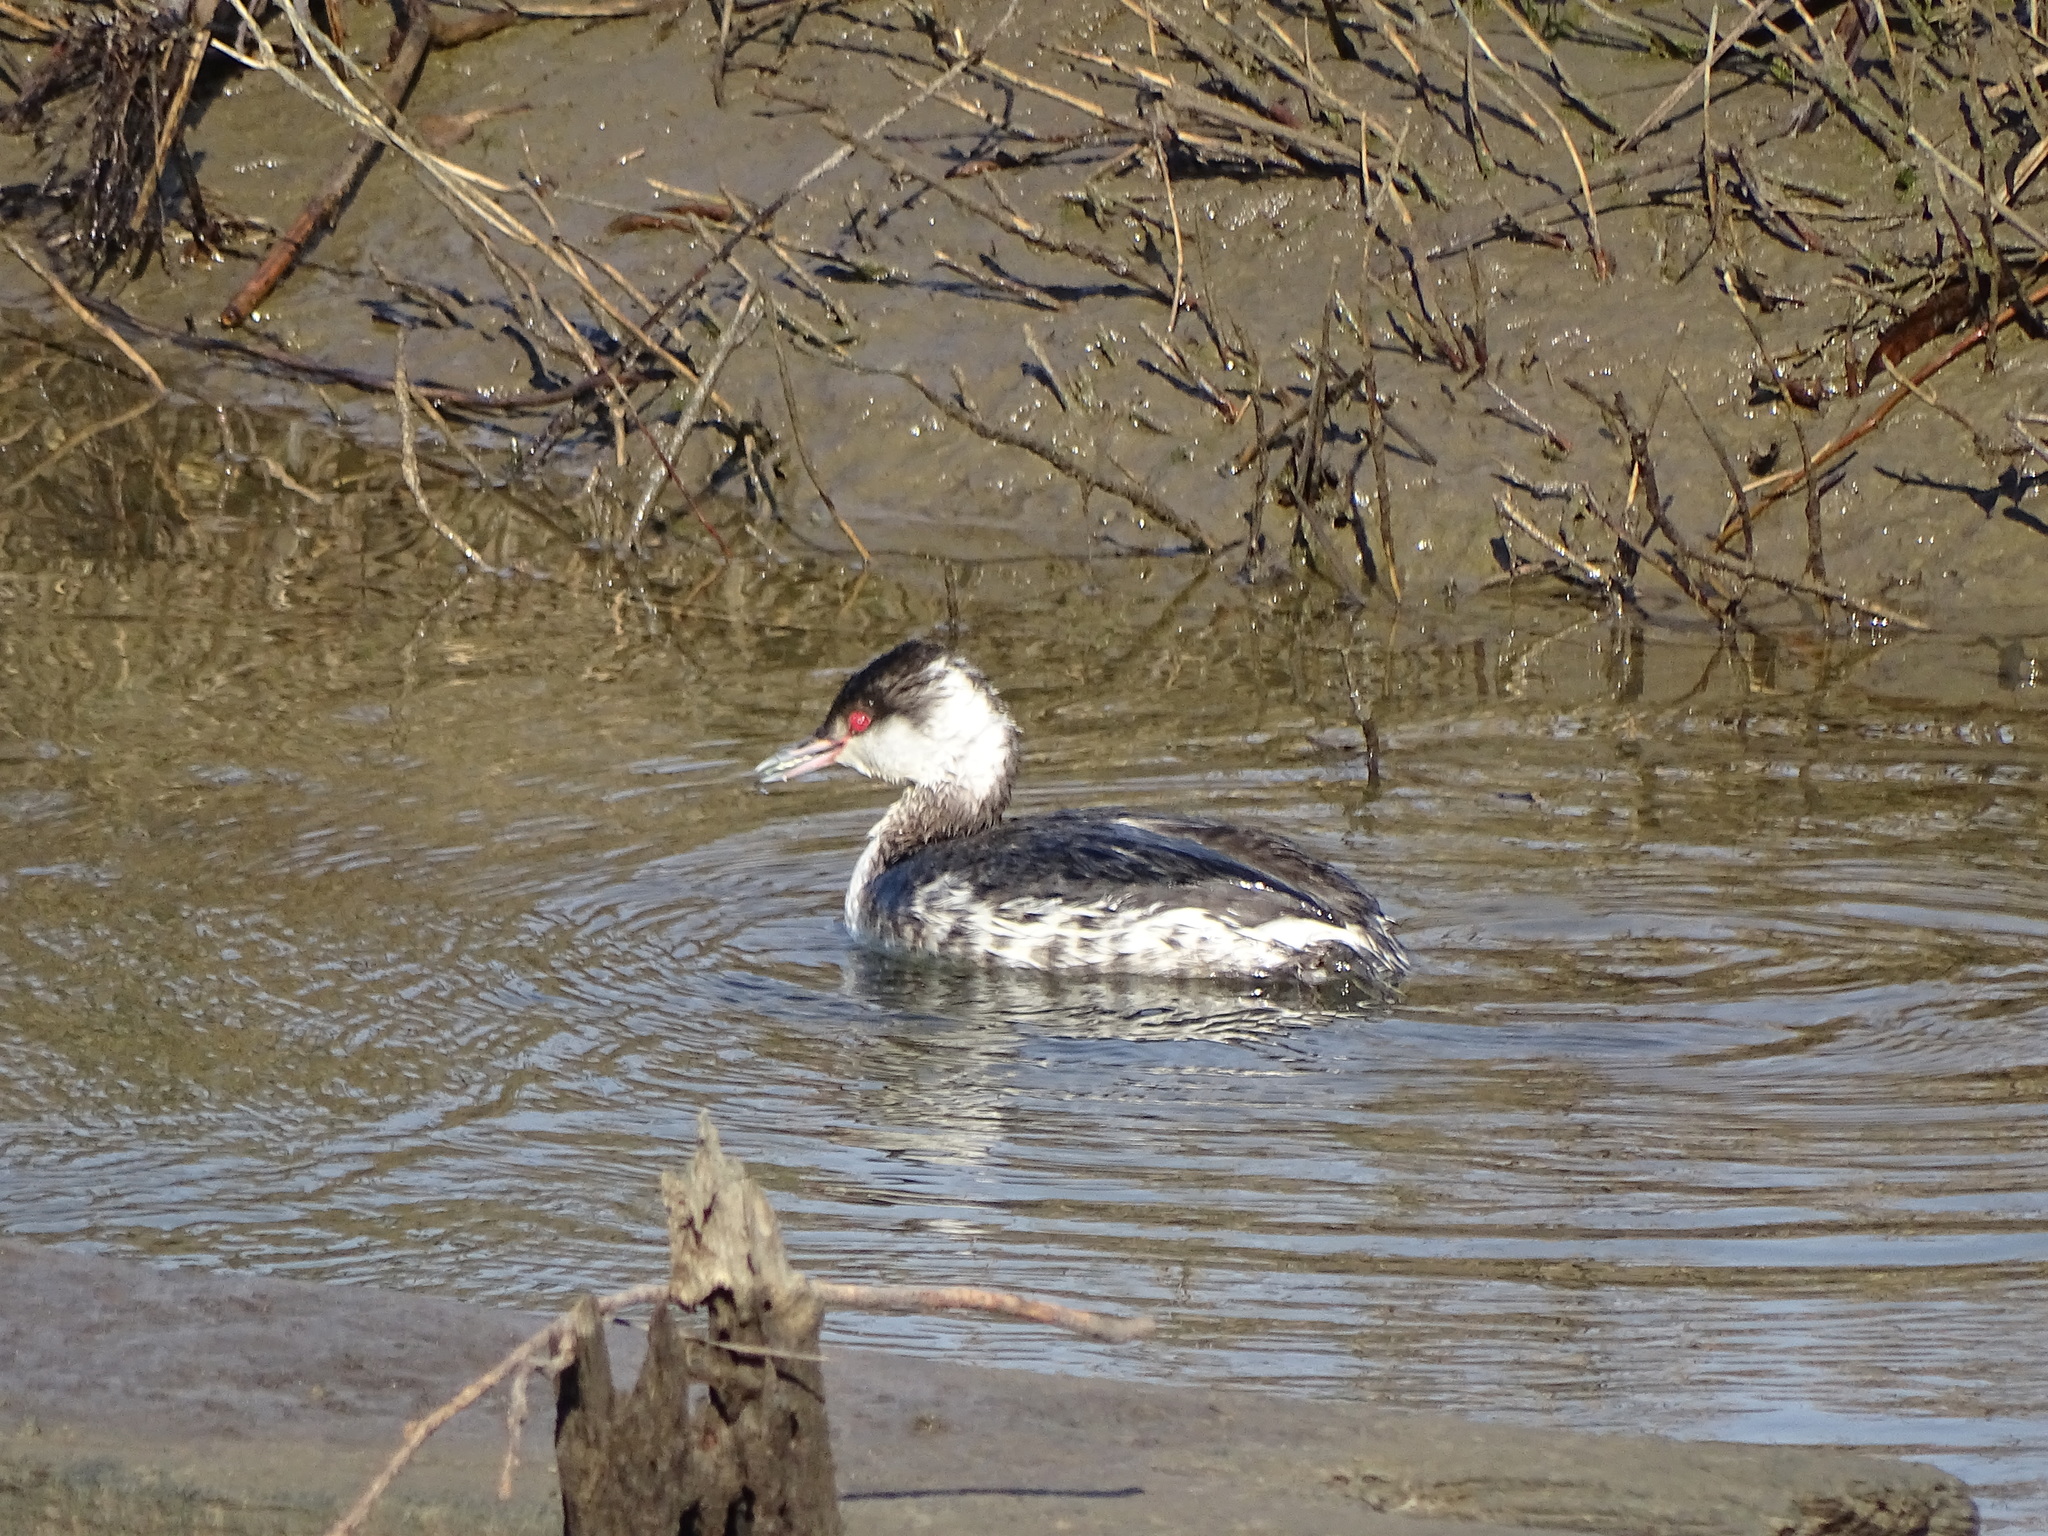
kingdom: Animalia
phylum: Chordata
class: Aves
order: Podicipediformes
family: Podicipedidae
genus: Podiceps
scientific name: Podiceps nigricollis
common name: Black-necked grebe
